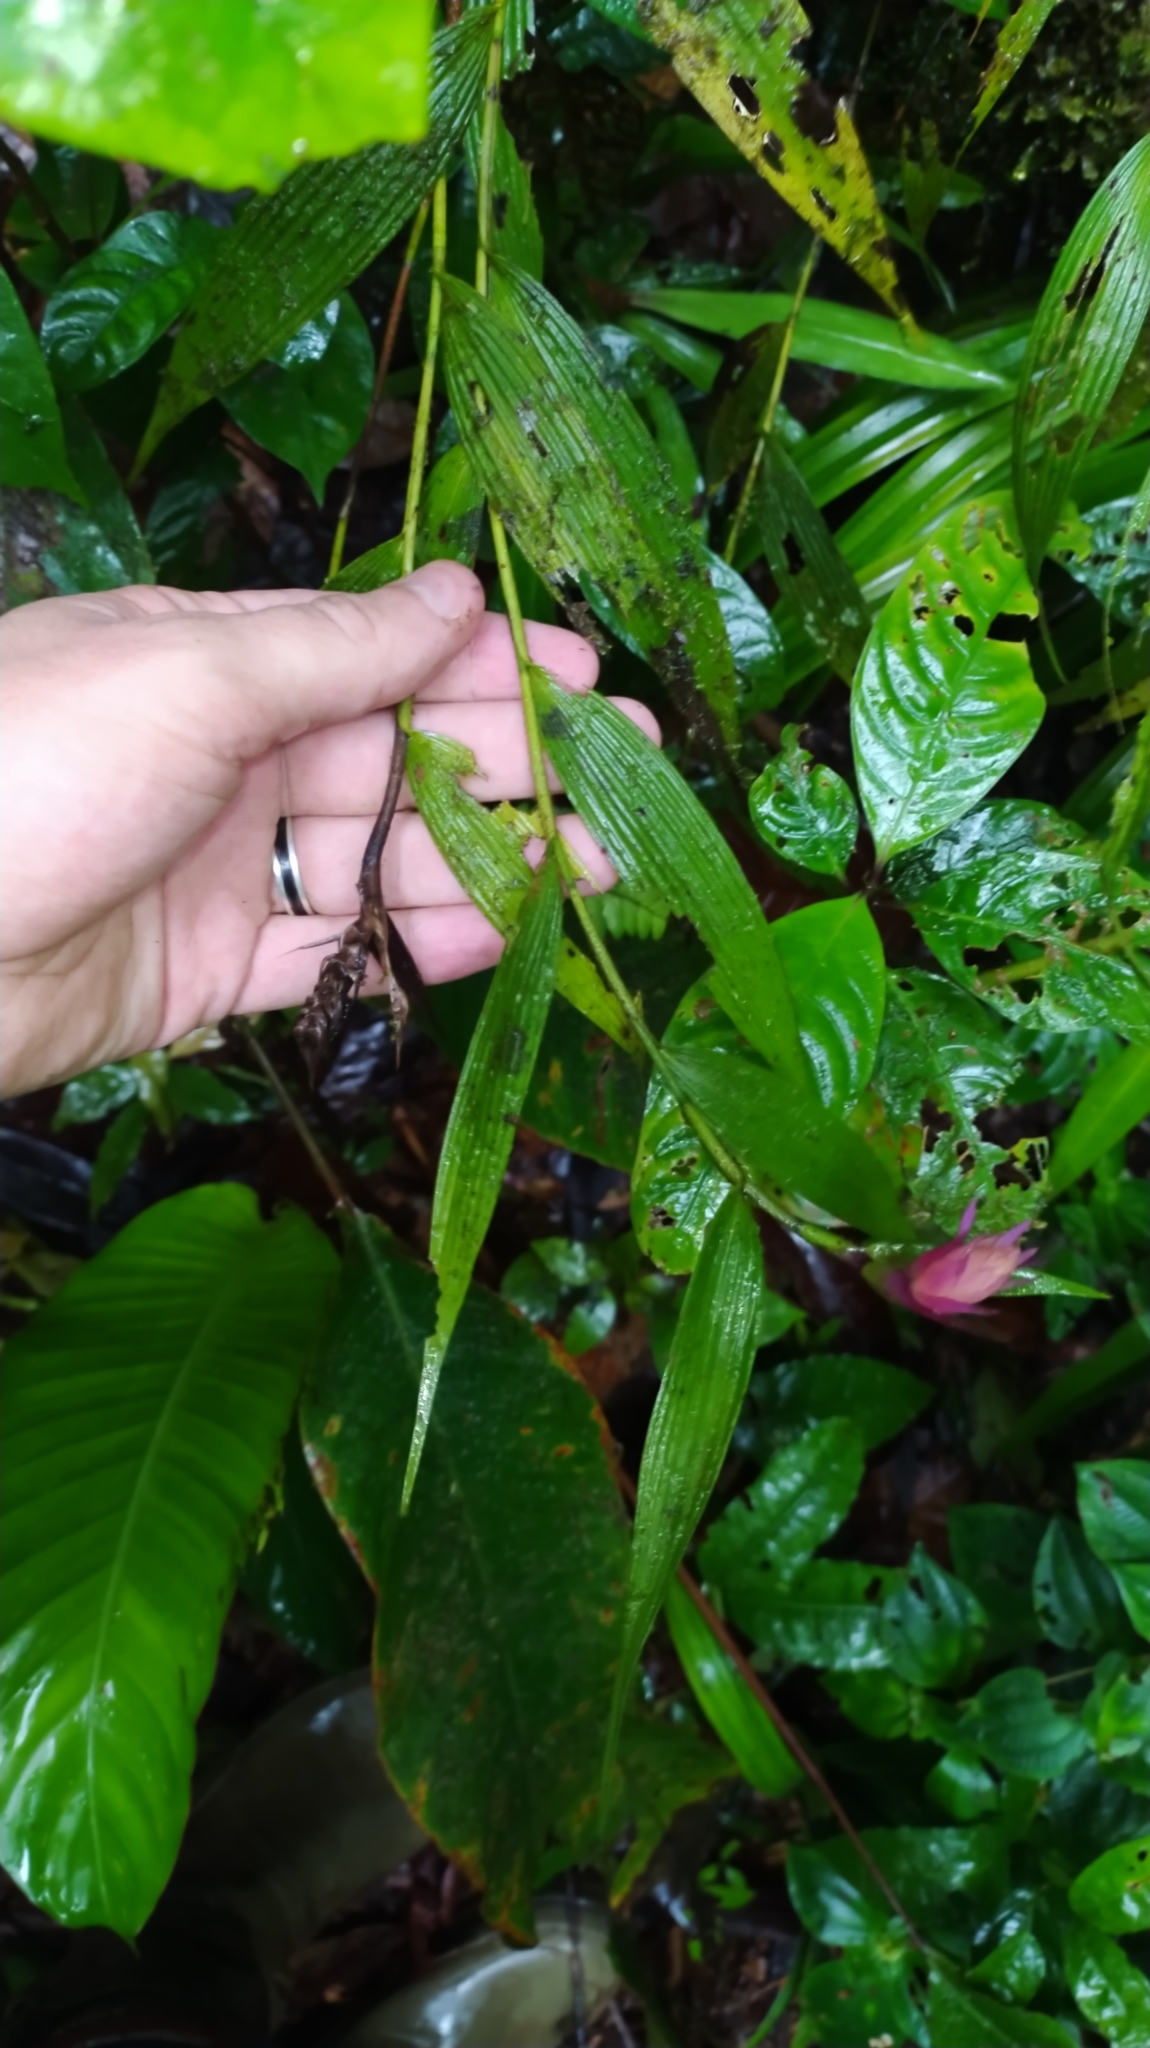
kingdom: Plantae
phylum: Tracheophyta
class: Liliopsida
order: Asparagales
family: Orchidaceae
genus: Elleanthus
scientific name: Elleanthus caravata
